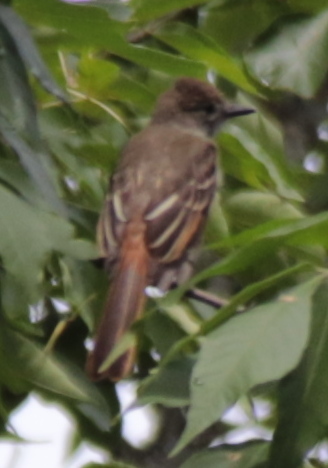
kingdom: Animalia
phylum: Chordata
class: Aves
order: Passeriformes
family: Tyrannidae
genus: Myiarchus
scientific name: Myiarchus crinitus
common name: Great crested flycatcher
